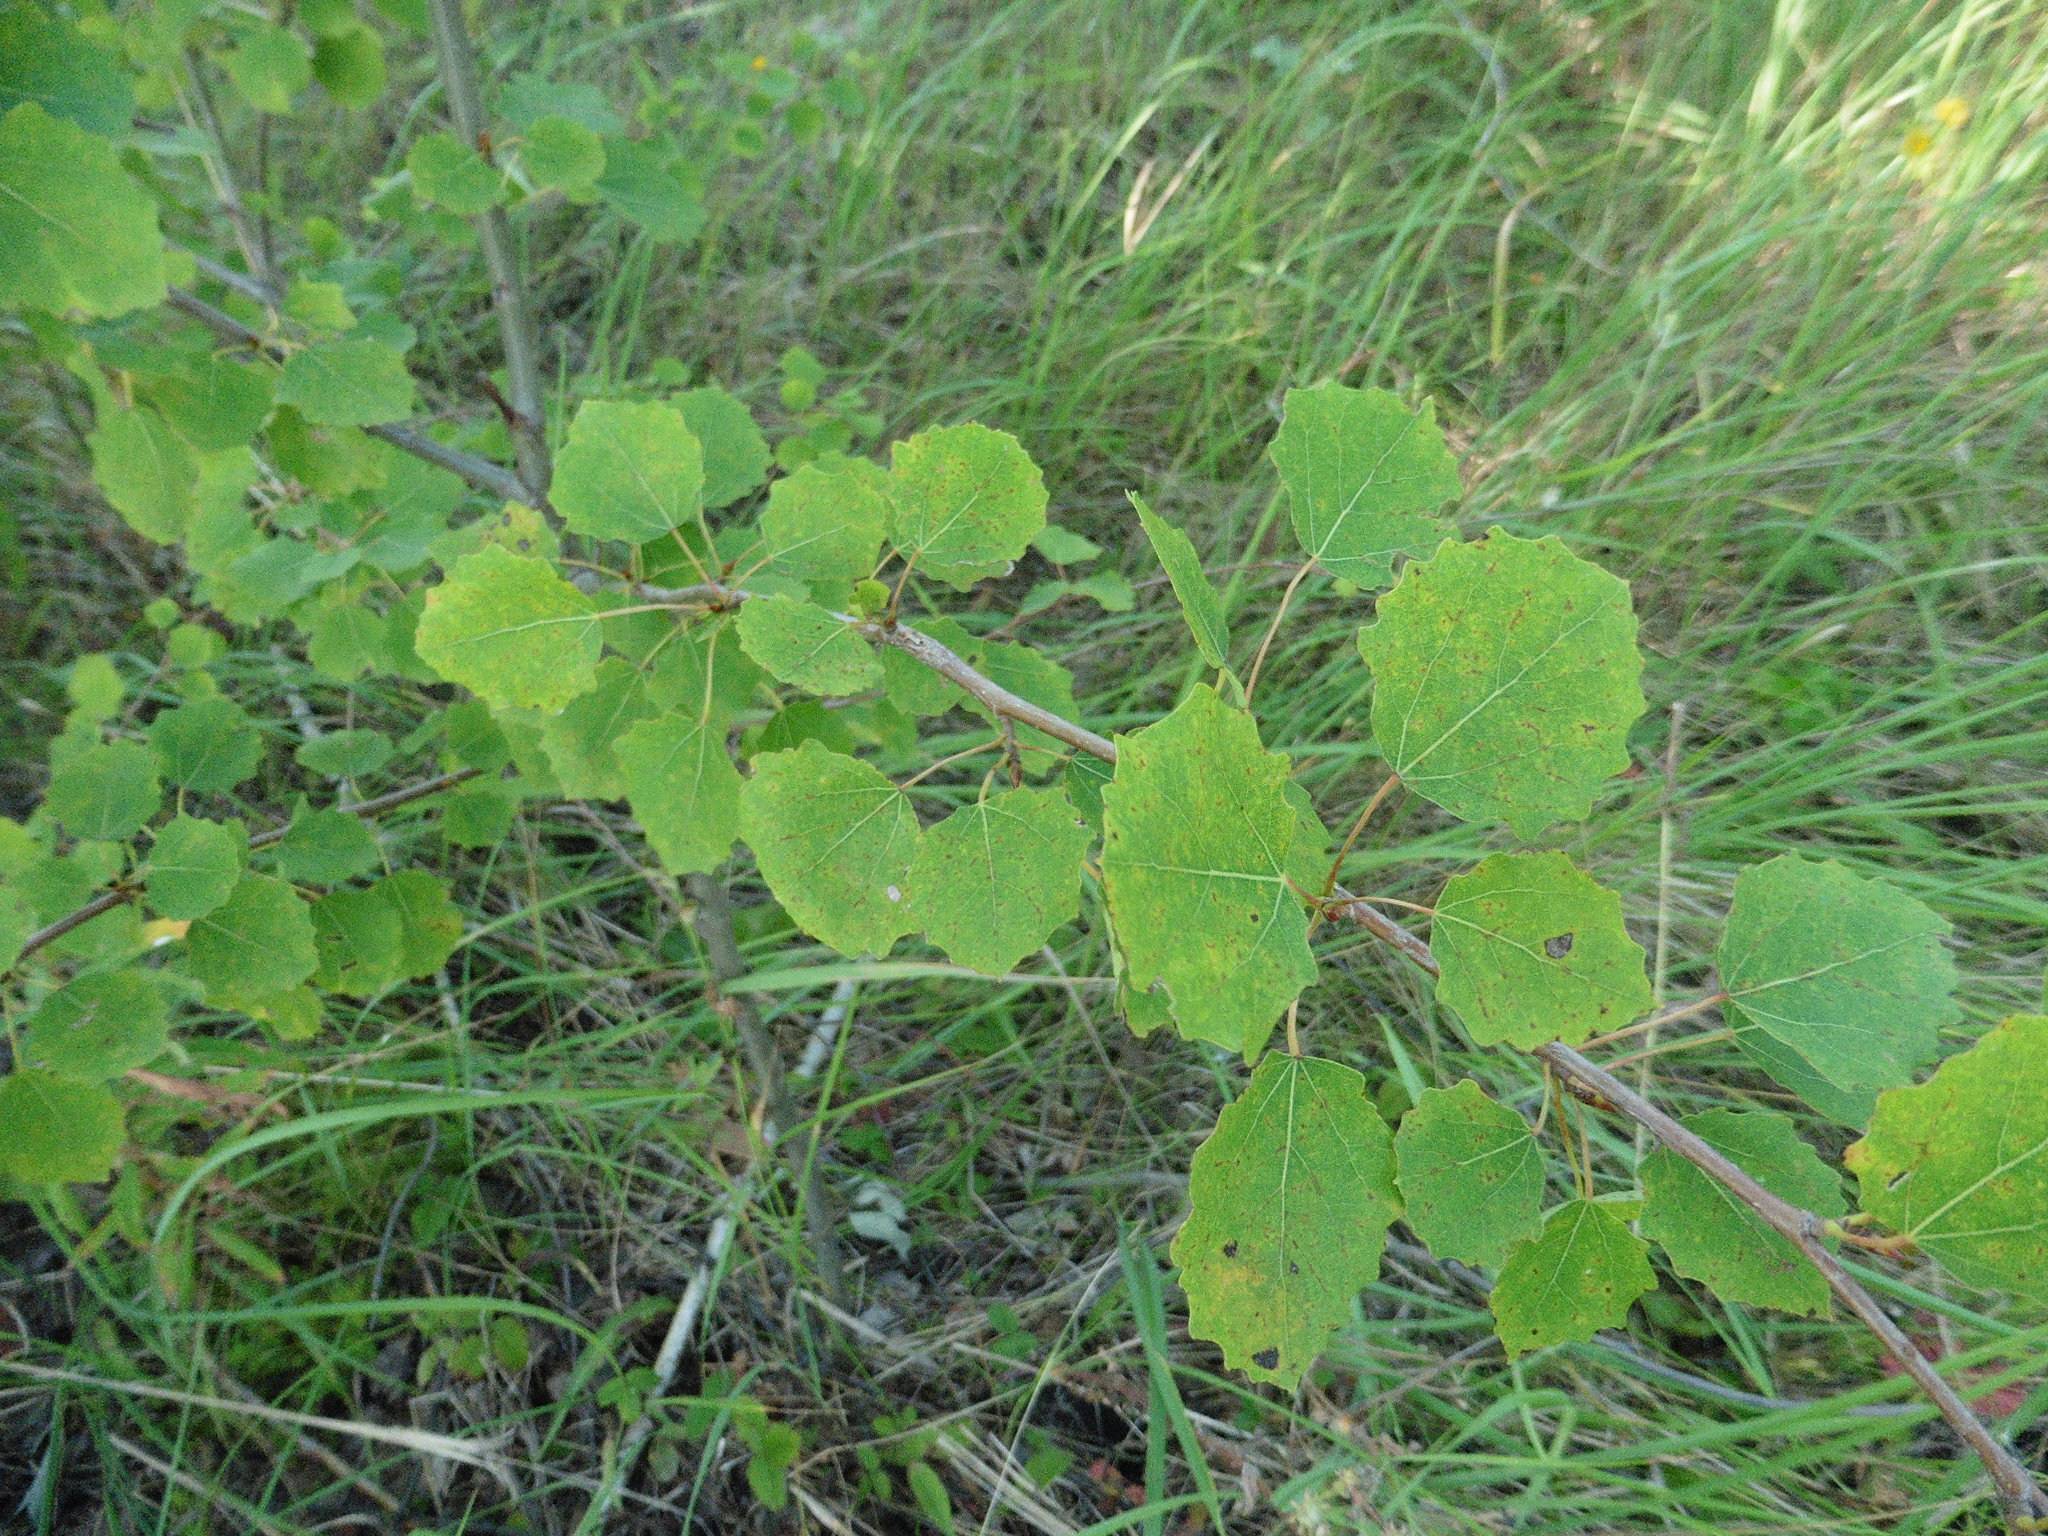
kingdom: Plantae
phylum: Tracheophyta
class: Magnoliopsida
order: Malpighiales
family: Salicaceae
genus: Populus
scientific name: Populus tremula
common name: European aspen
